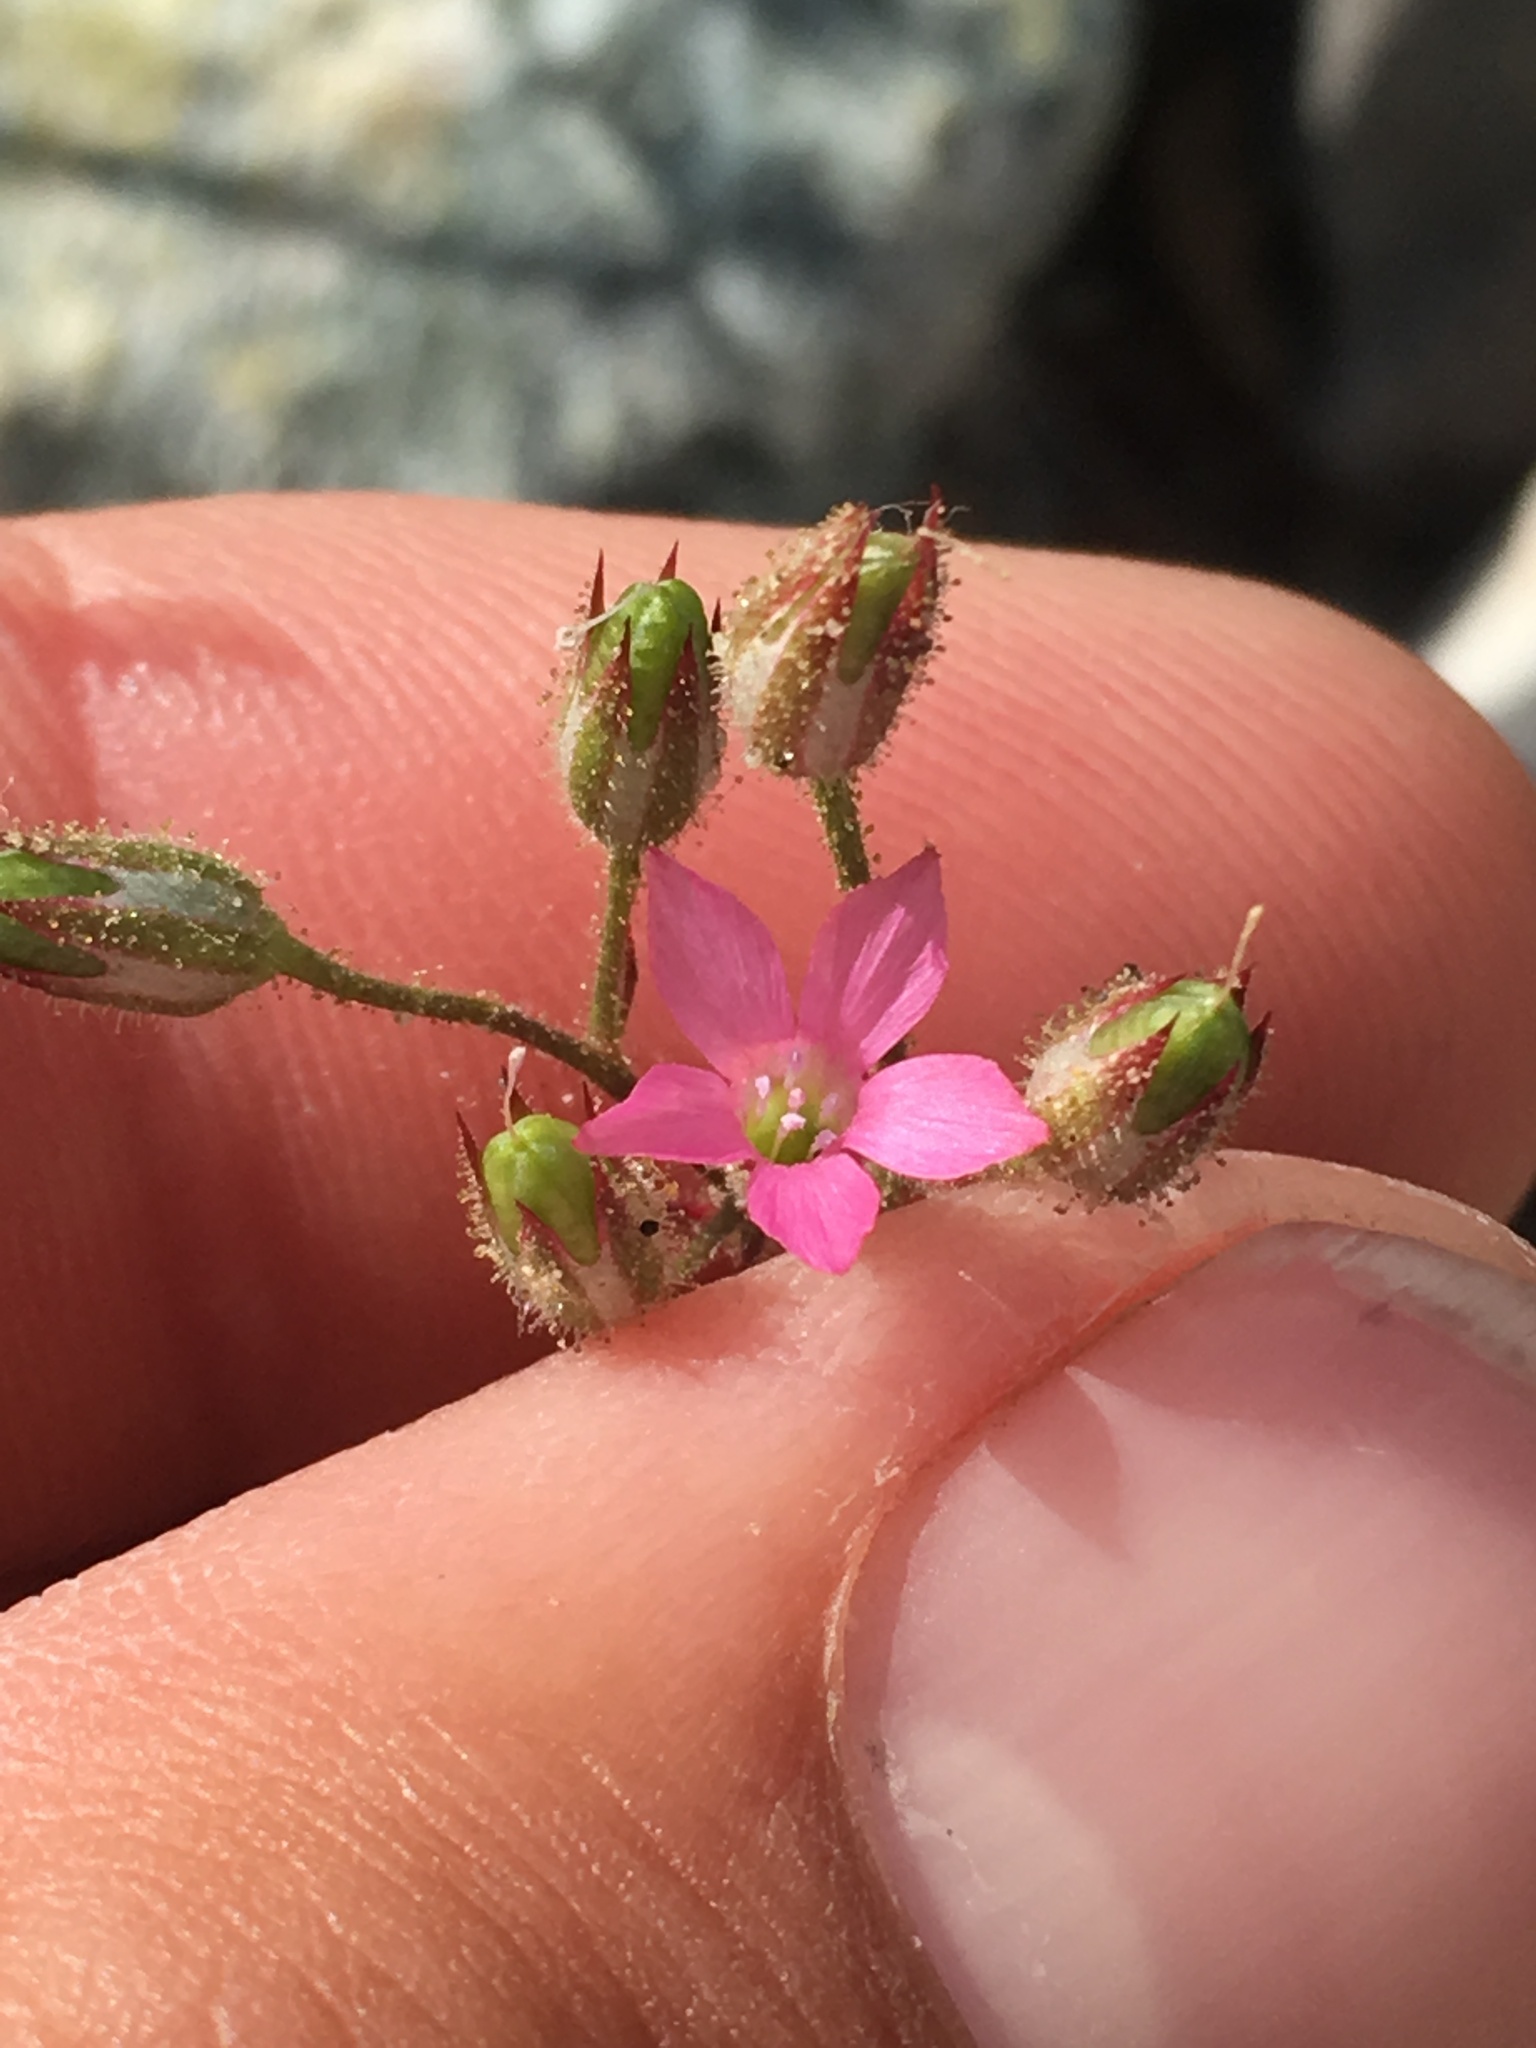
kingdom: Plantae
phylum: Tracheophyta
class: Magnoliopsida
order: Ericales
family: Polemoniaceae
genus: Aliciella
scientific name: Aliciella latifolia
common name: Broad-leaf gilia
